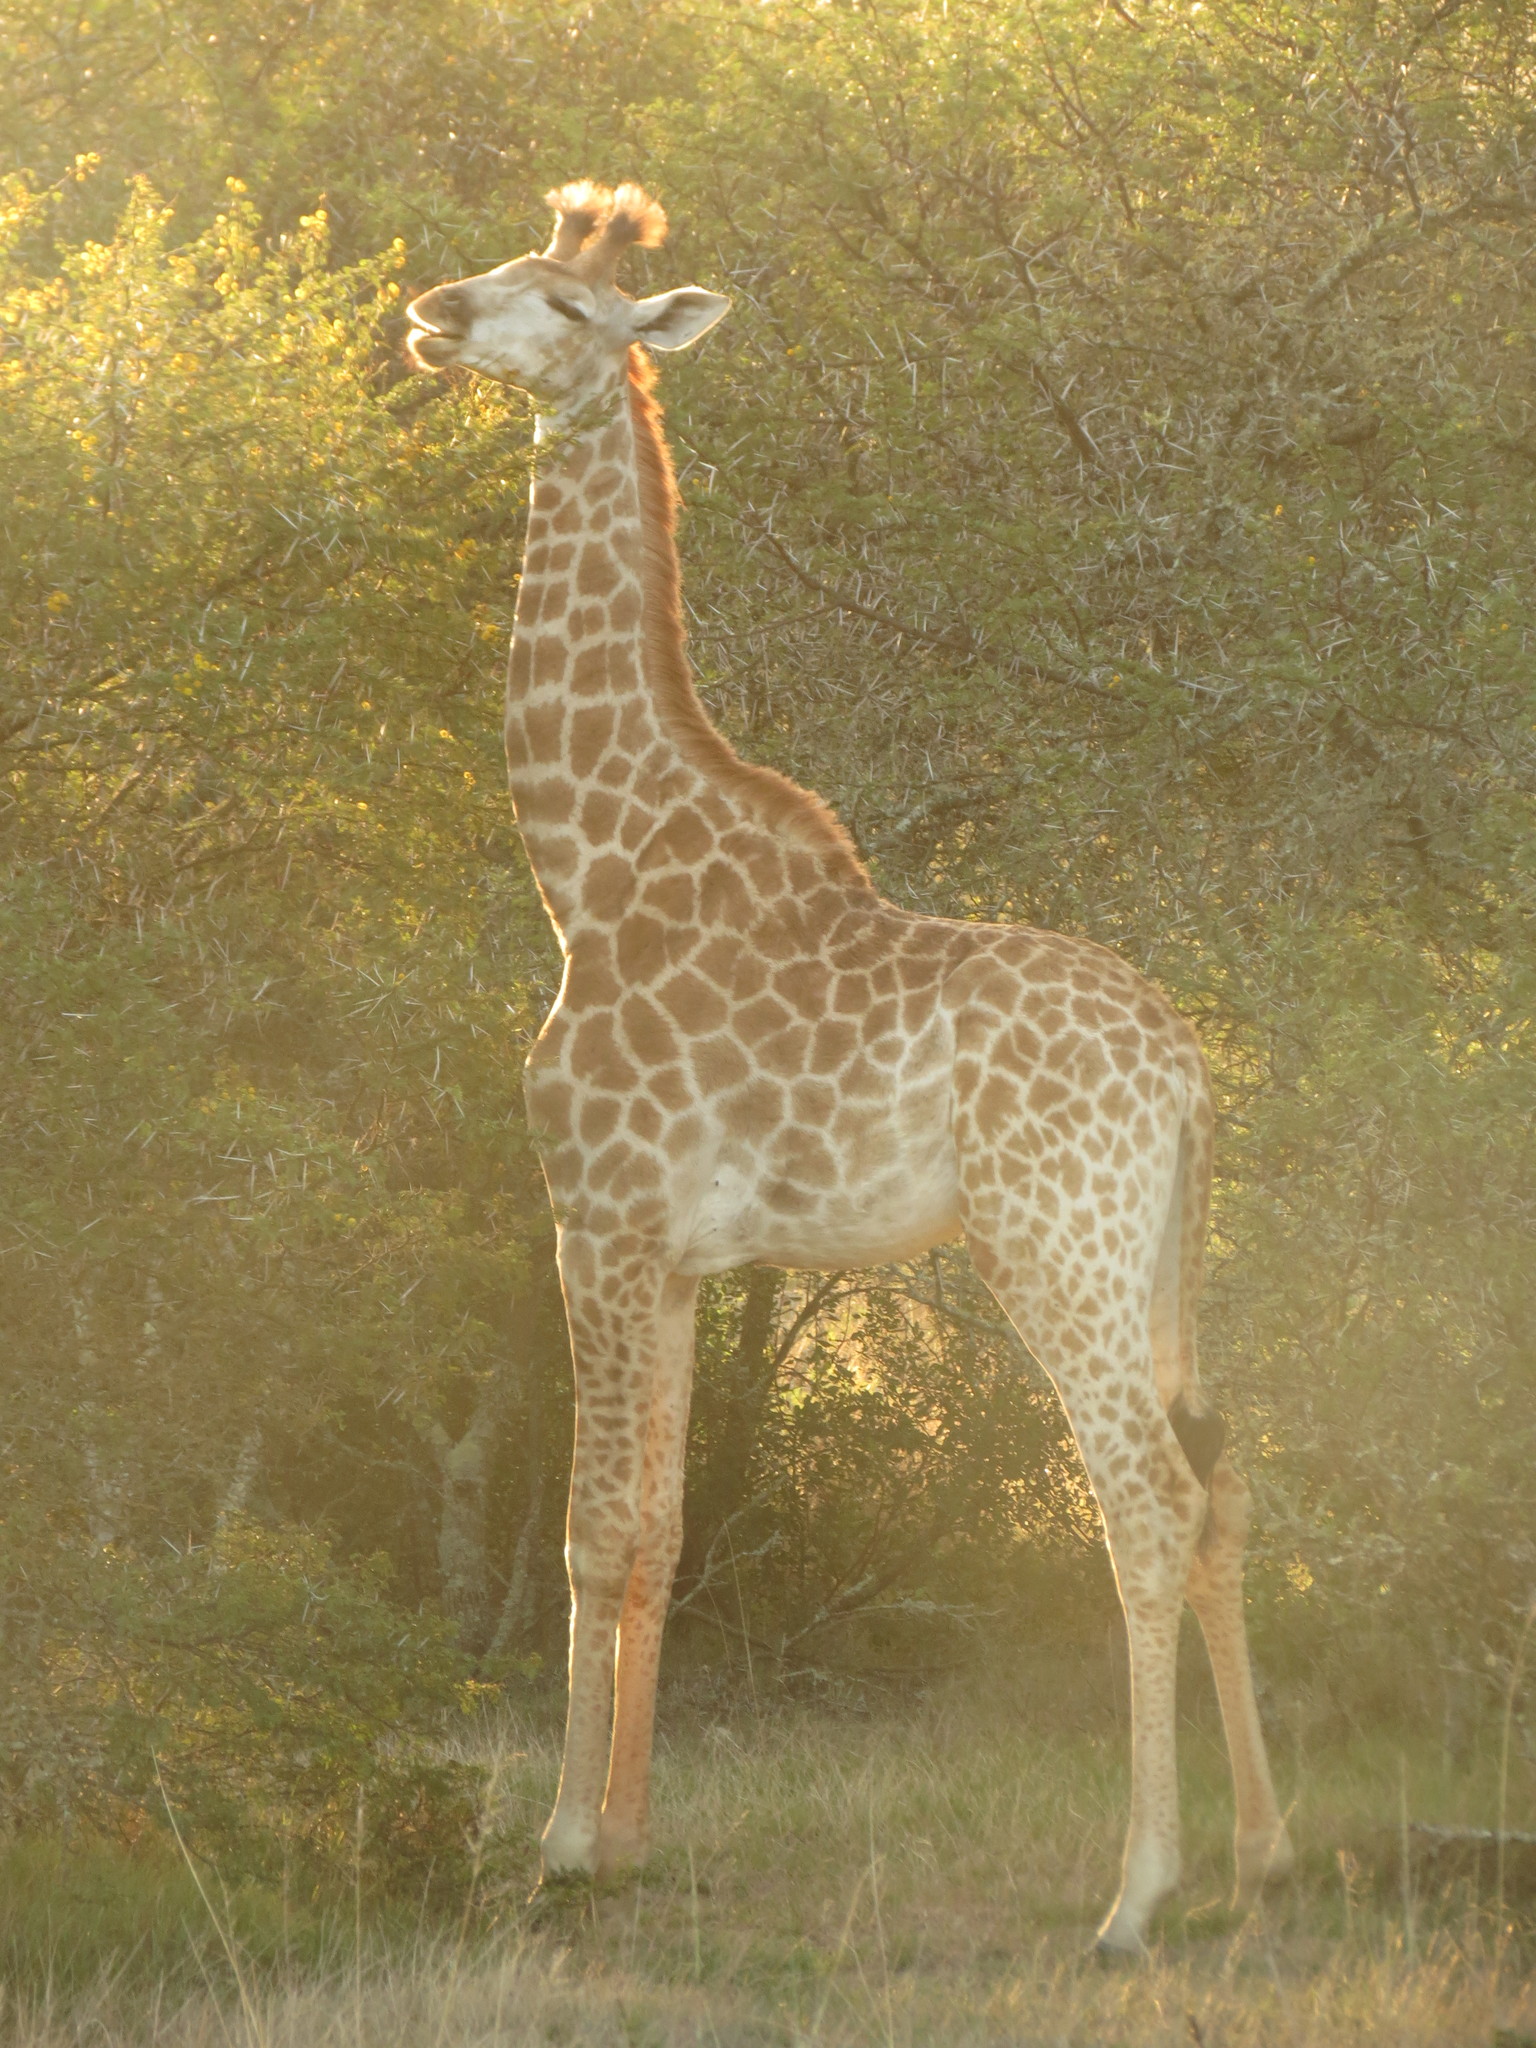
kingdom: Animalia
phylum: Chordata
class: Mammalia
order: Artiodactyla
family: Giraffidae
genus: Giraffa
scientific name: Giraffa giraffa
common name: Southern giraffe
